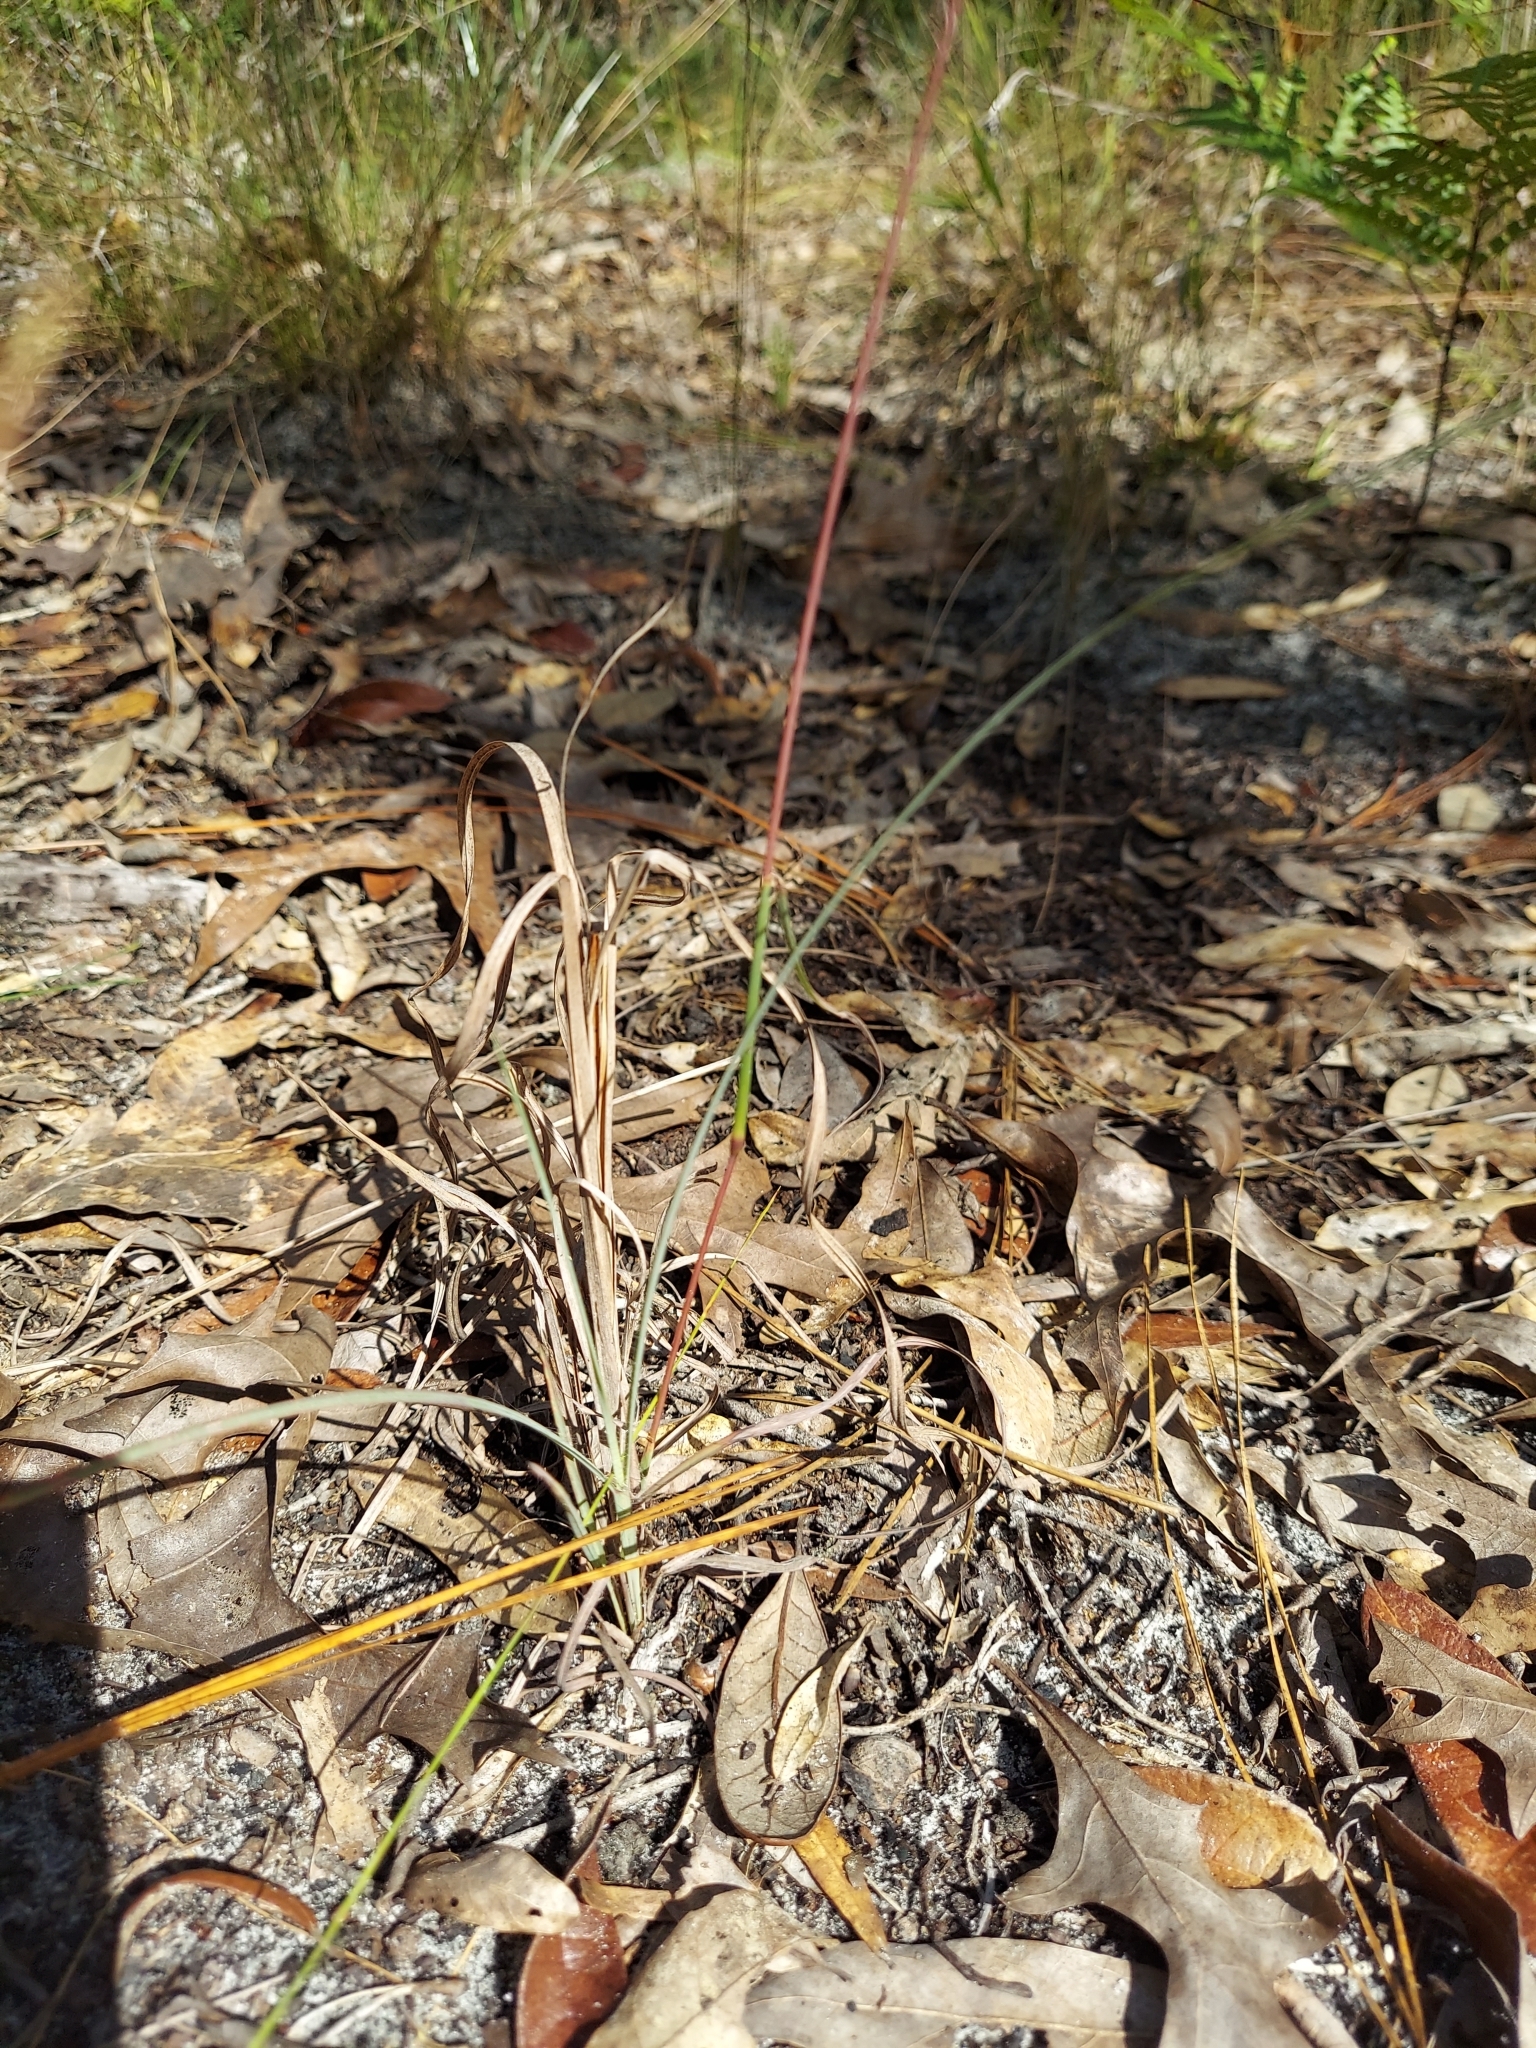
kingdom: Plantae
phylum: Tracheophyta
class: Liliopsida
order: Poales
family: Poaceae
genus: Andropogon
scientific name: Andropogon longiberbis
